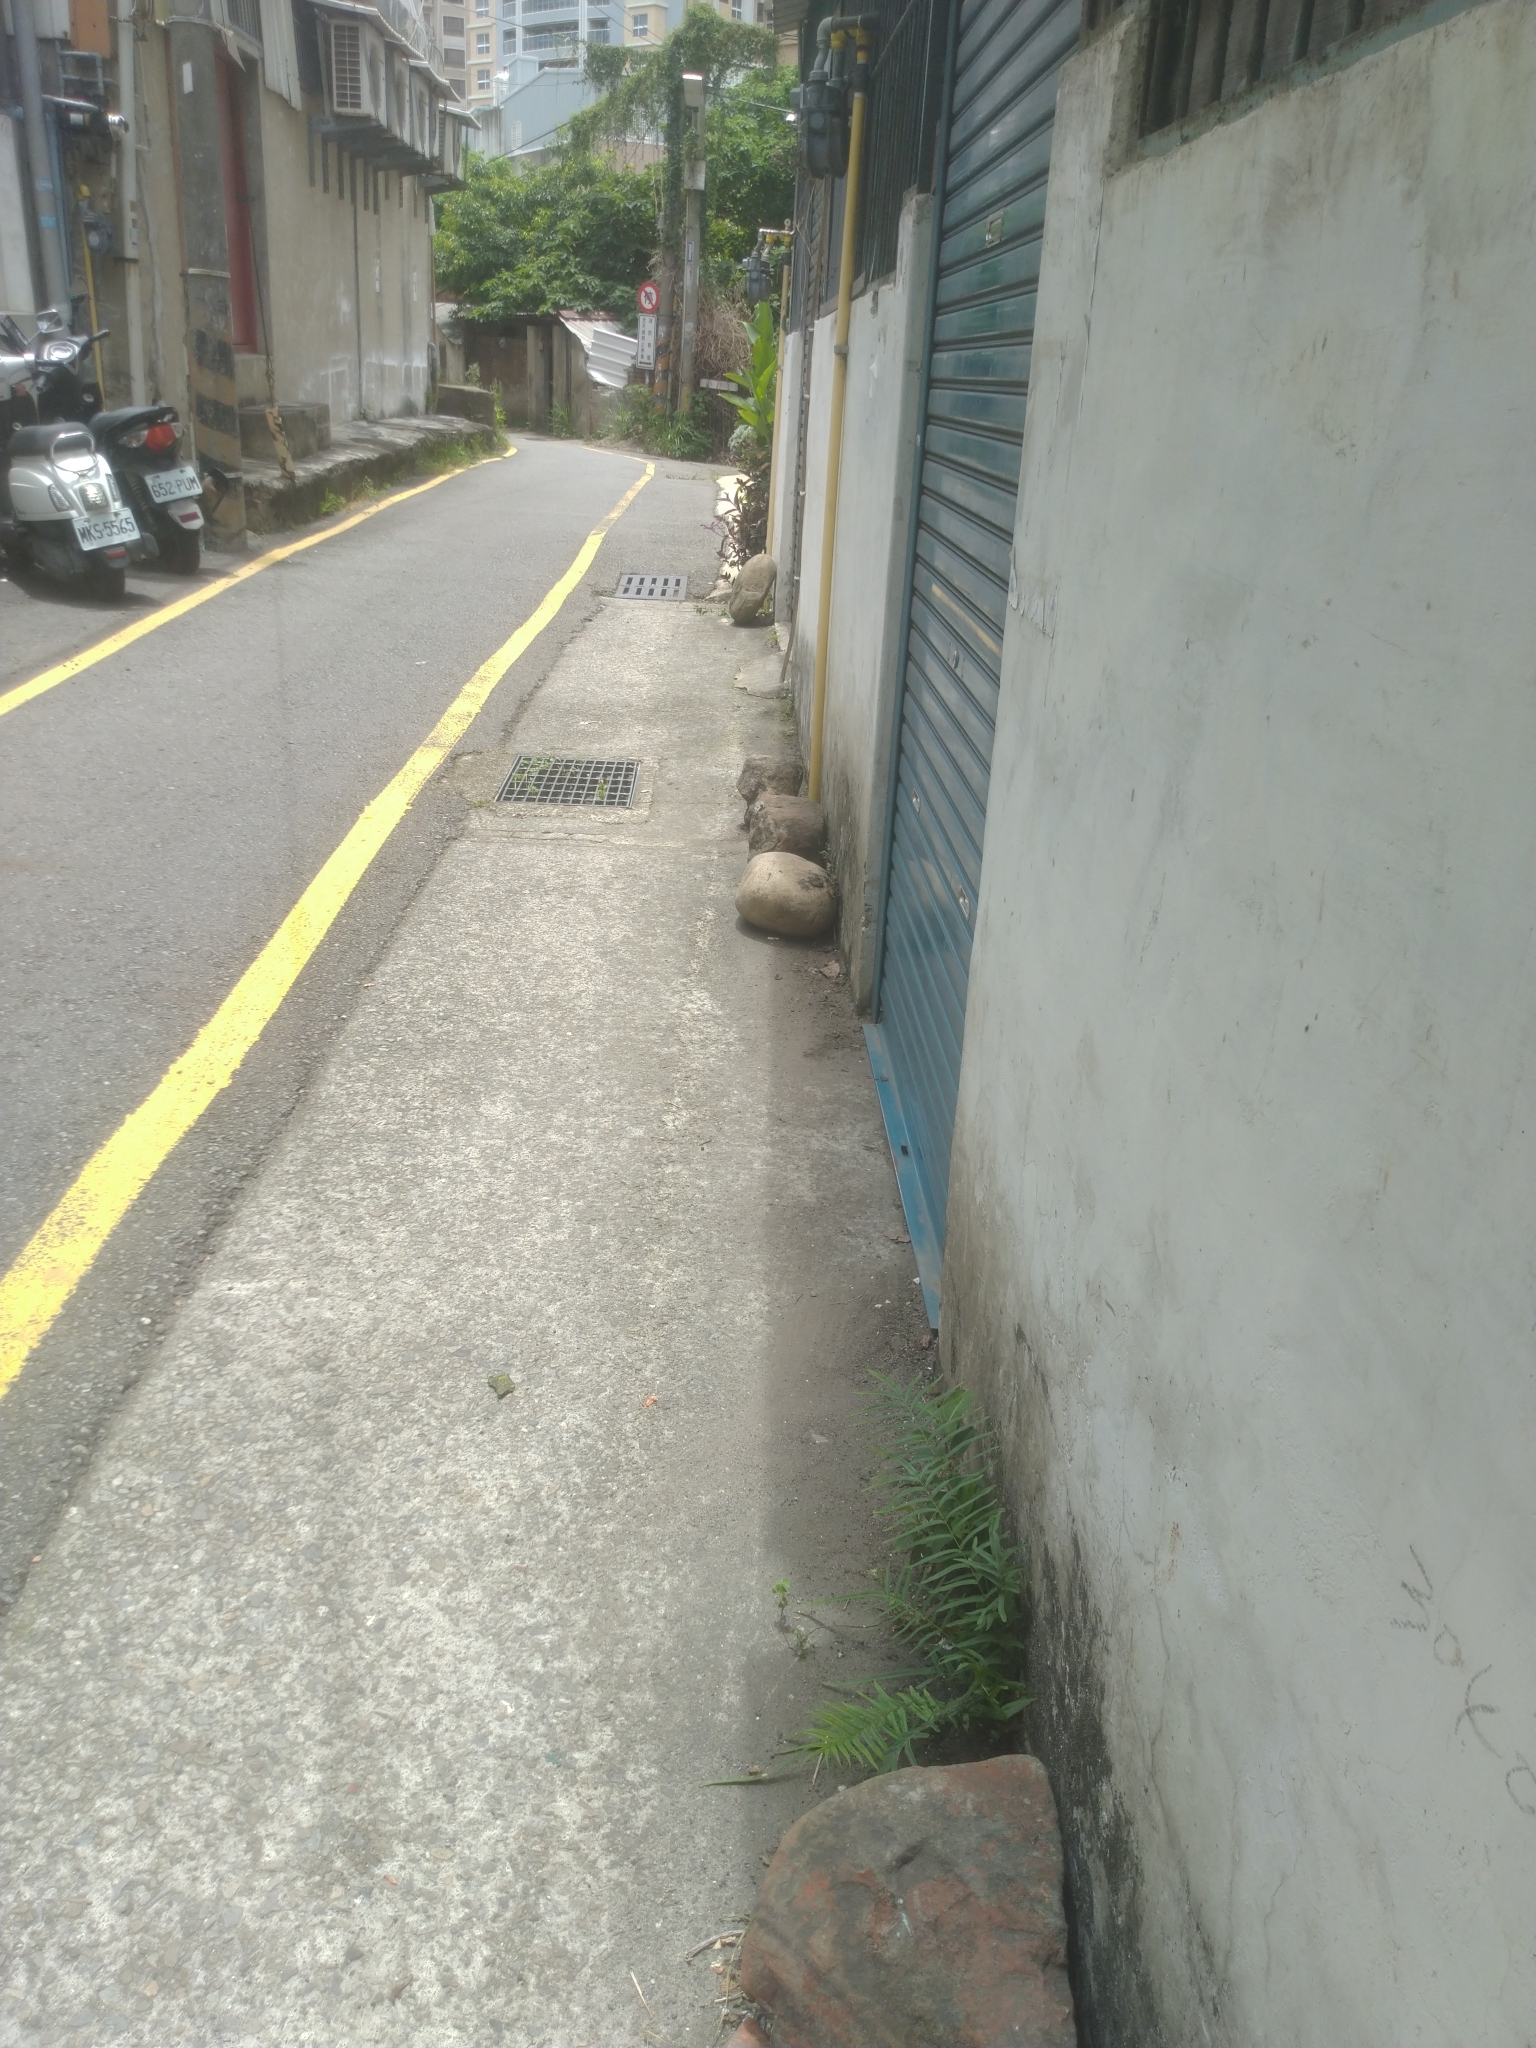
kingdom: Plantae
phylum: Tracheophyta
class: Polypodiopsida
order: Polypodiales
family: Pteridaceae
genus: Pteris
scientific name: Pteris vittata
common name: Ladder brake
